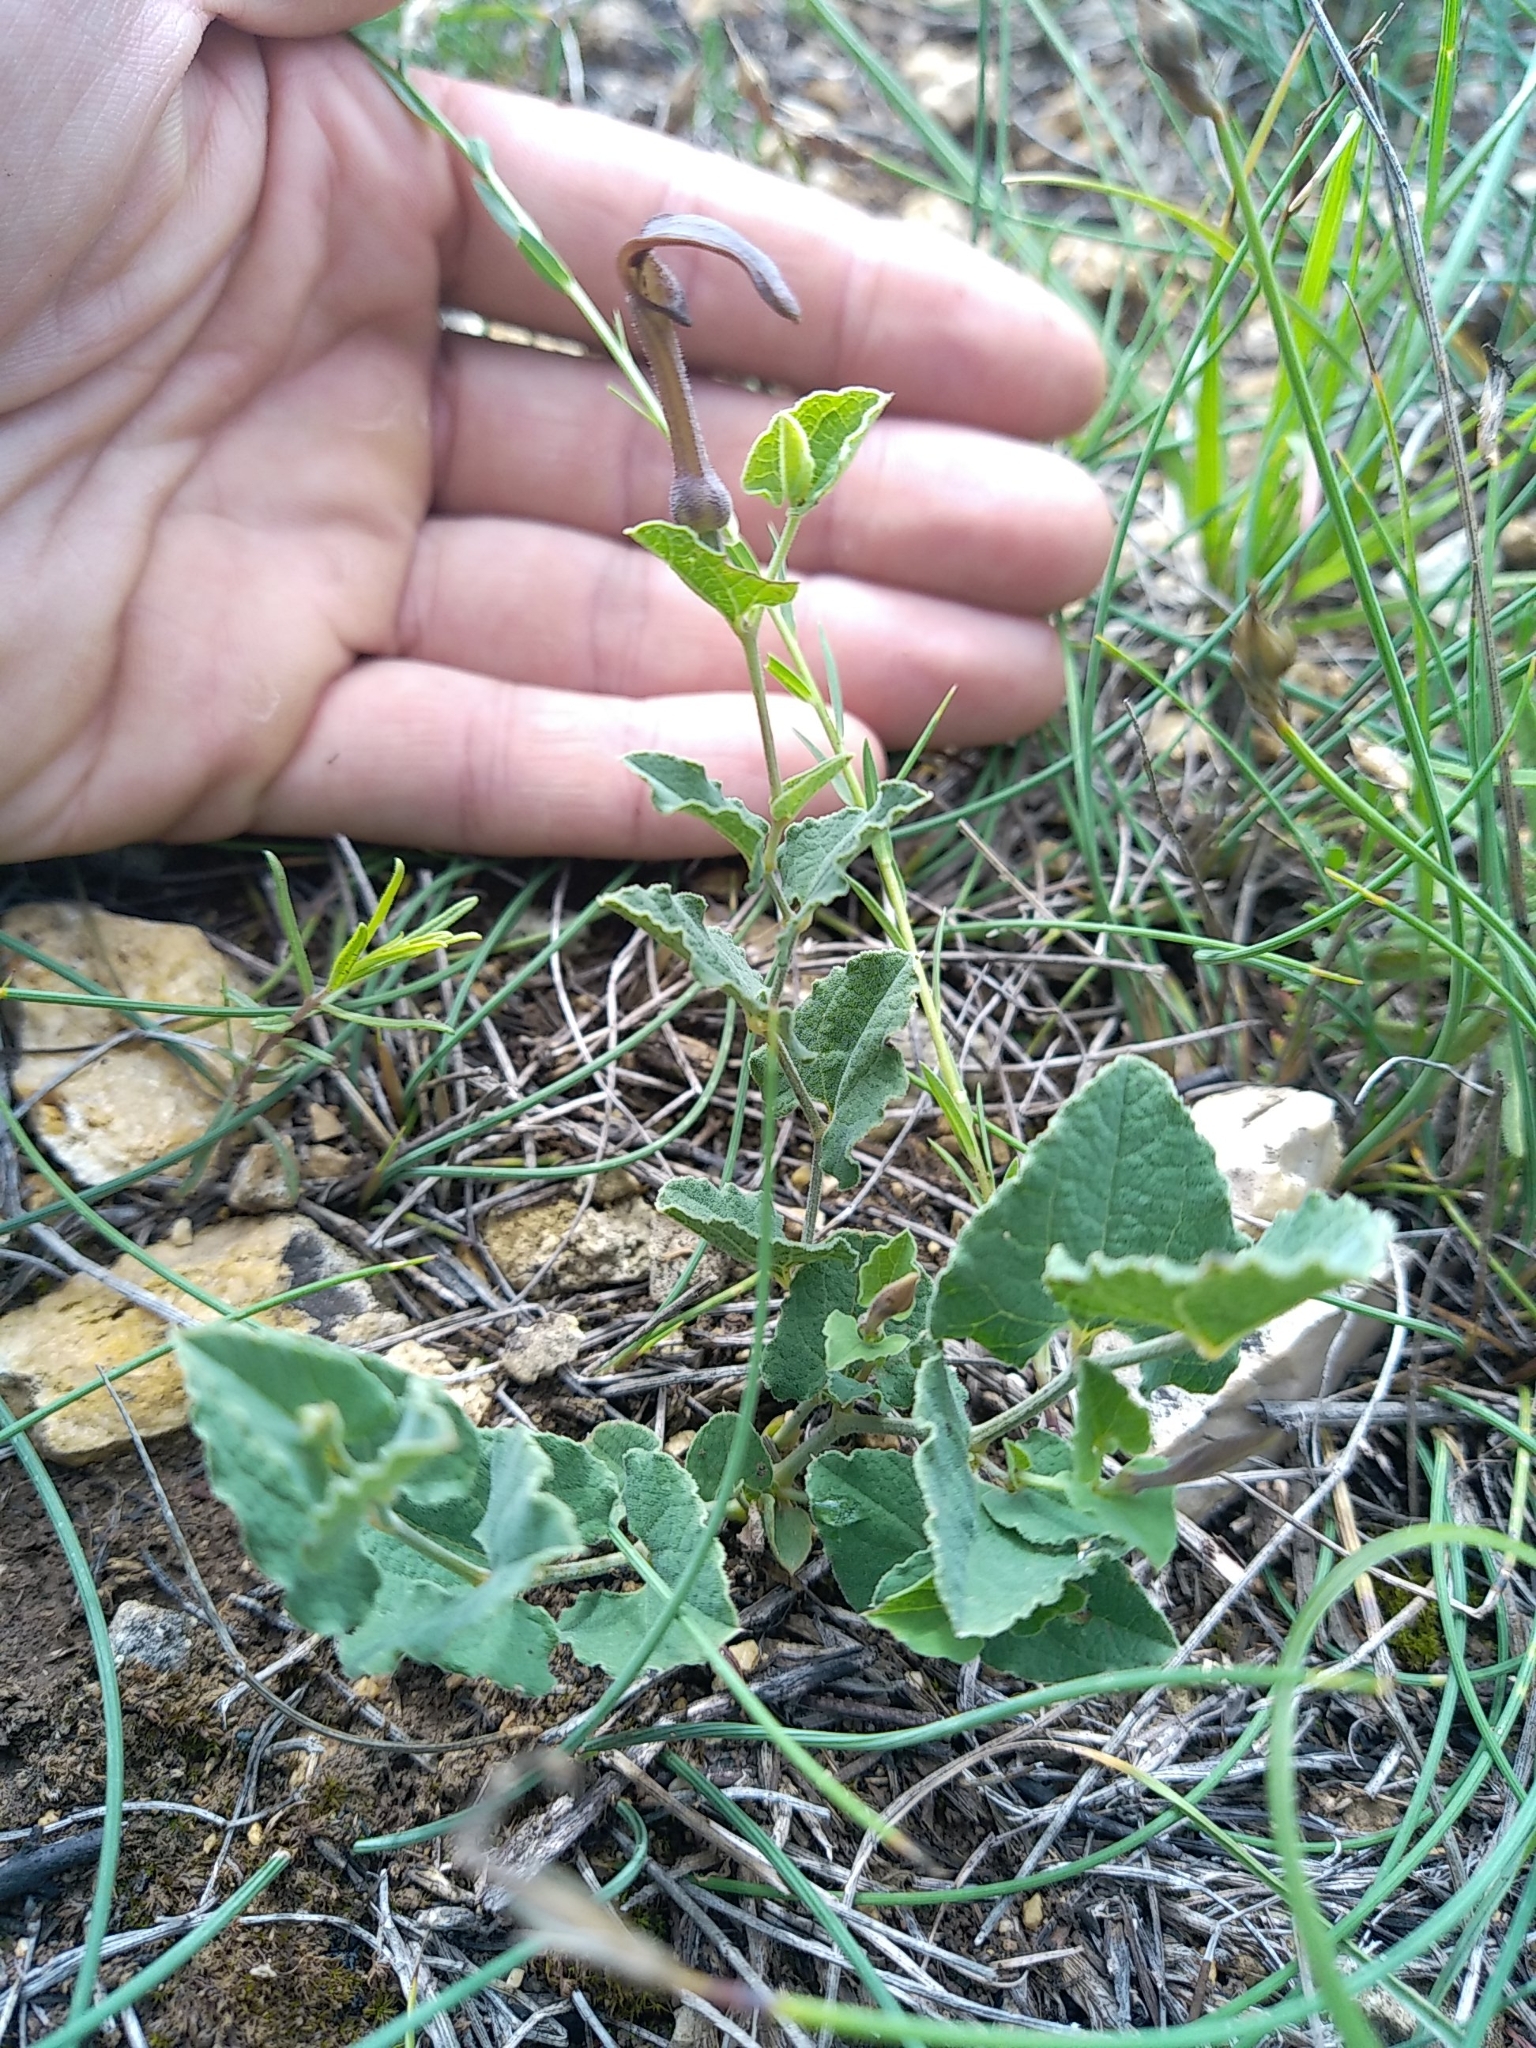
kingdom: Plantae
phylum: Tracheophyta
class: Magnoliopsida
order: Piperales
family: Aristolochiaceae
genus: Aristolochia
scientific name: Aristolochia pistolochia
